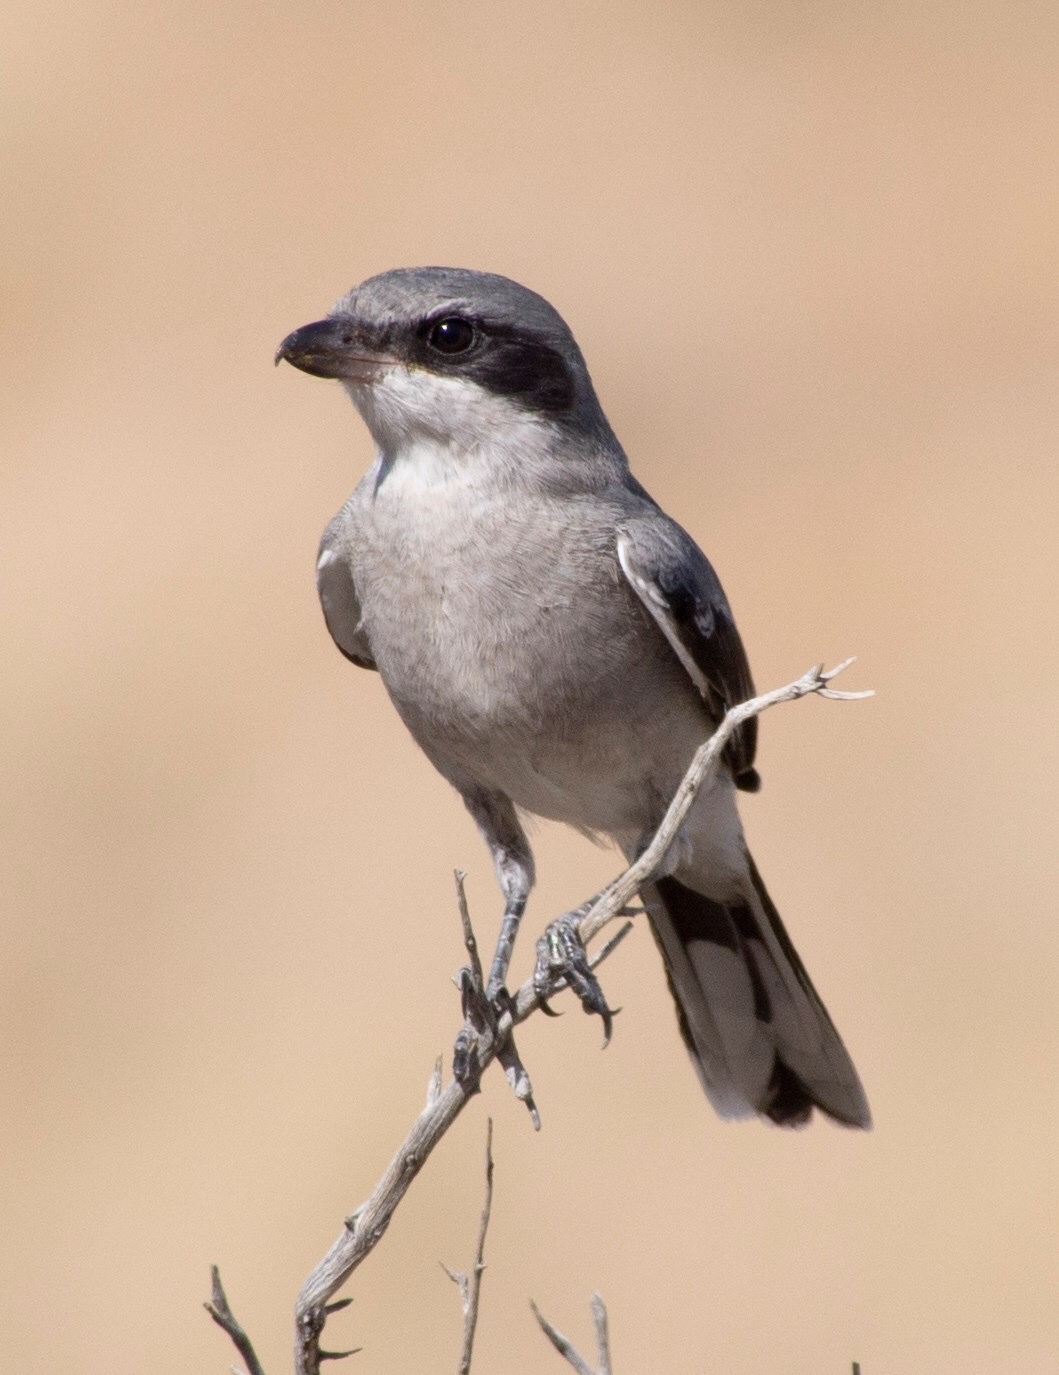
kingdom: Animalia
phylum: Chordata
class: Aves
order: Passeriformes
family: Laniidae
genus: Lanius
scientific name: Lanius ludovicianus
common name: Loggerhead shrike
